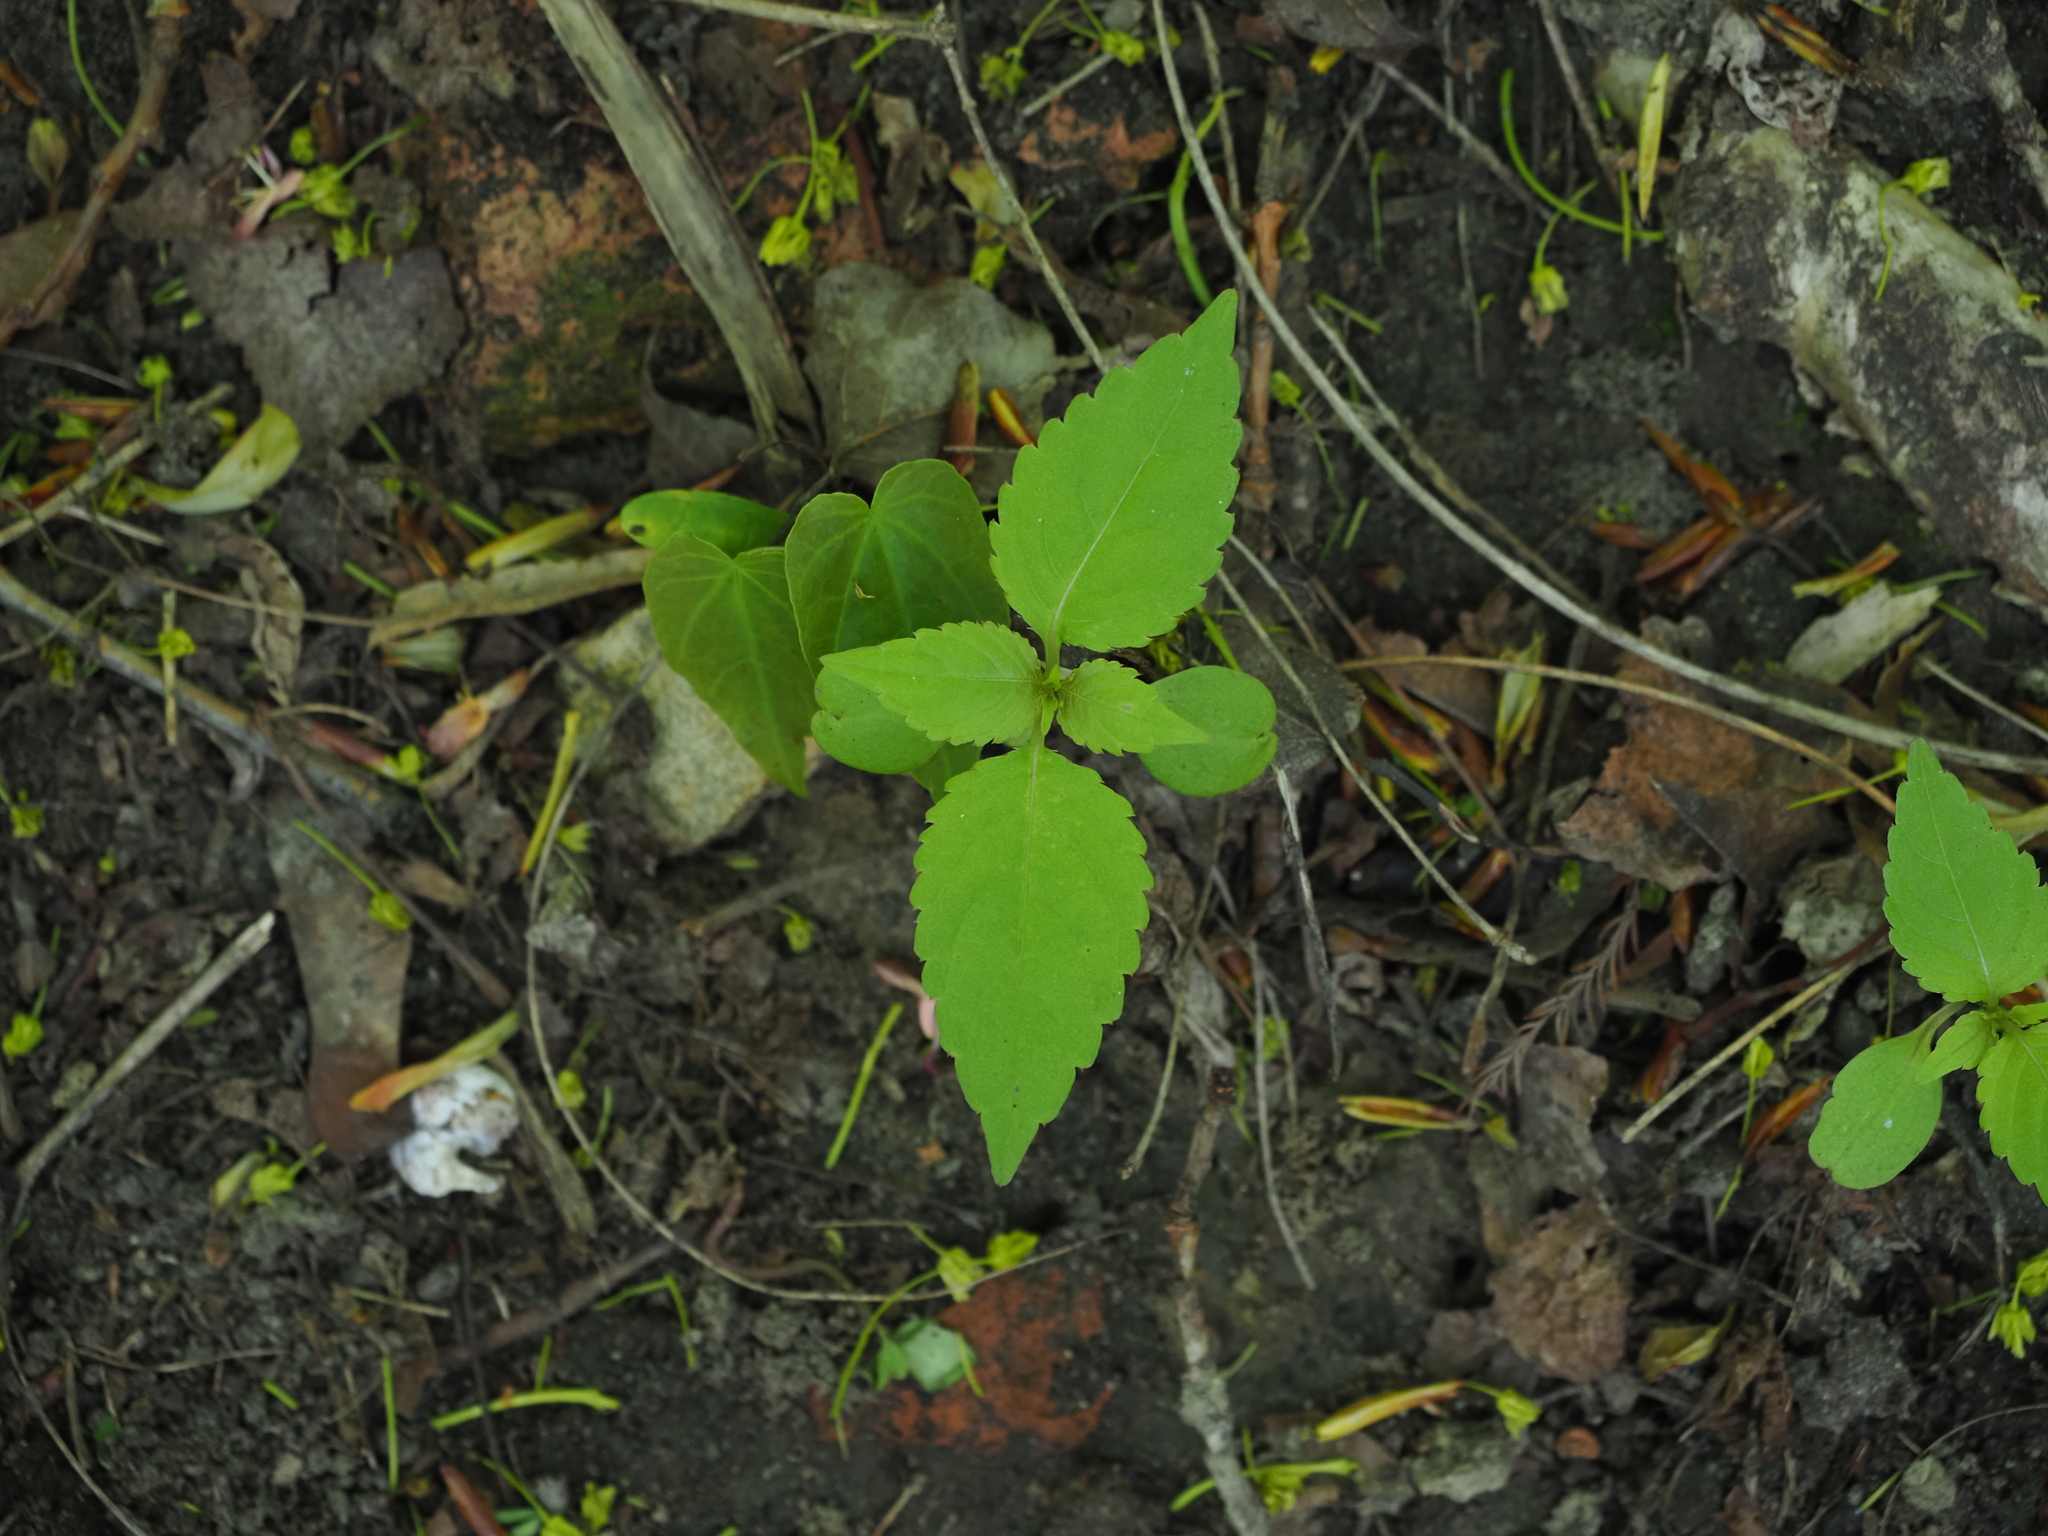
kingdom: Plantae
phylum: Tracheophyta
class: Magnoliopsida
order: Ericales
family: Balsaminaceae
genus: Impatiens
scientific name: Impatiens parviflora
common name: Small balsam
